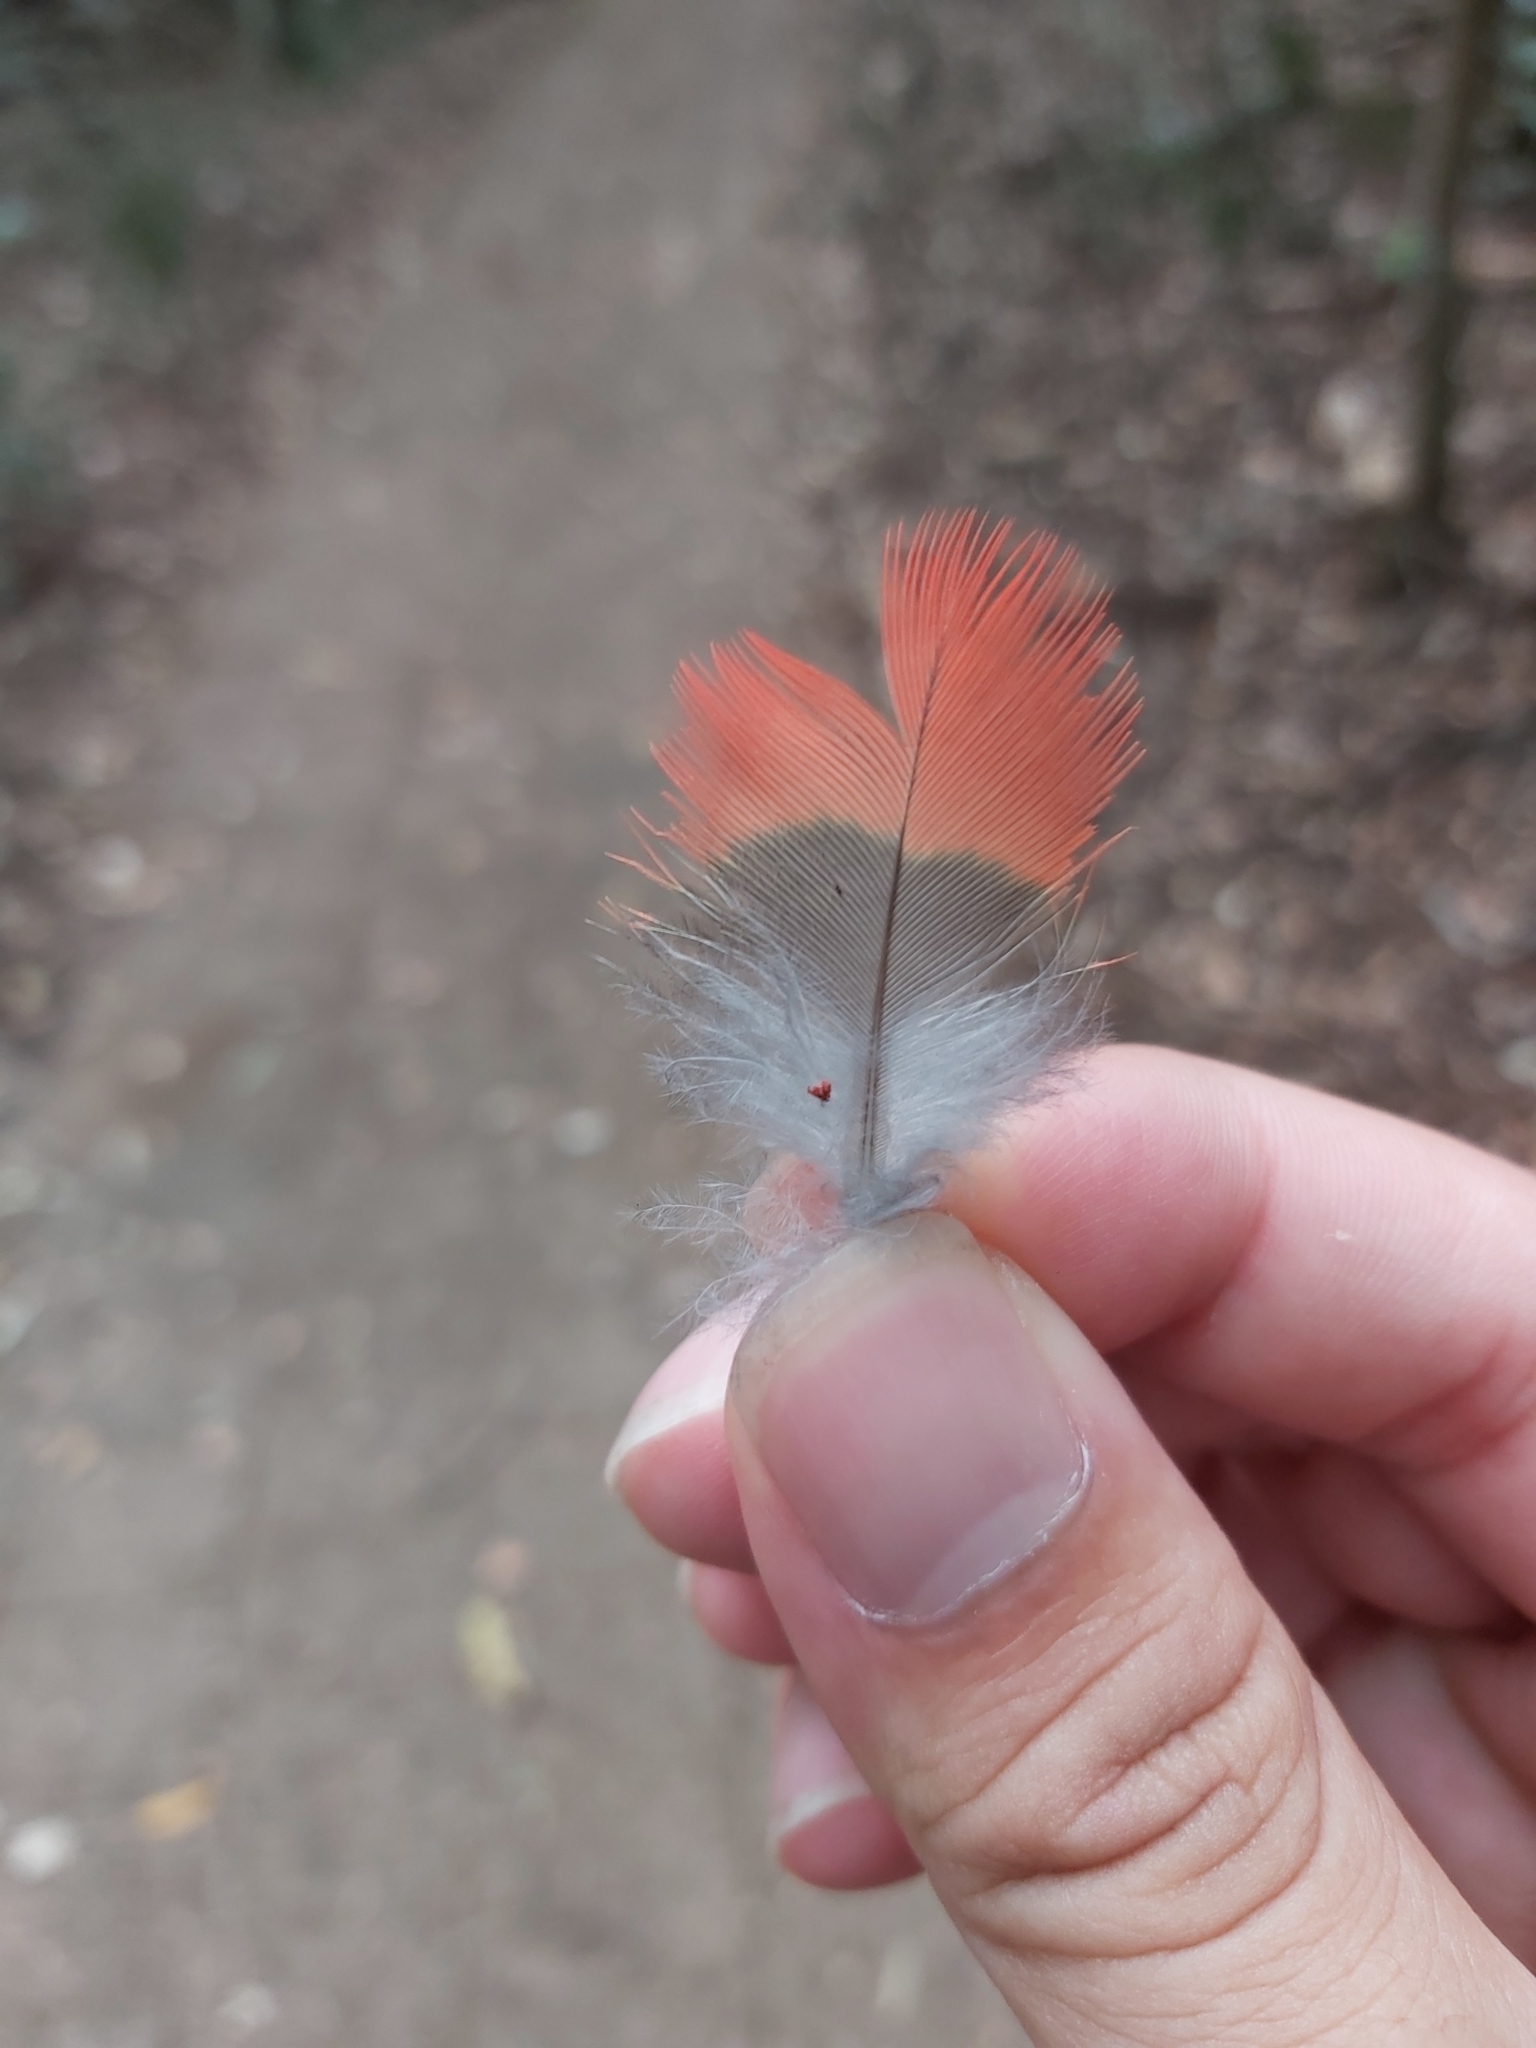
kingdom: Animalia
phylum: Chordata
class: Aves
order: Psittaciformes
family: Psittacidae
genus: Platycercus
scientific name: Platycercus elegans
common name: Crimson rosella
